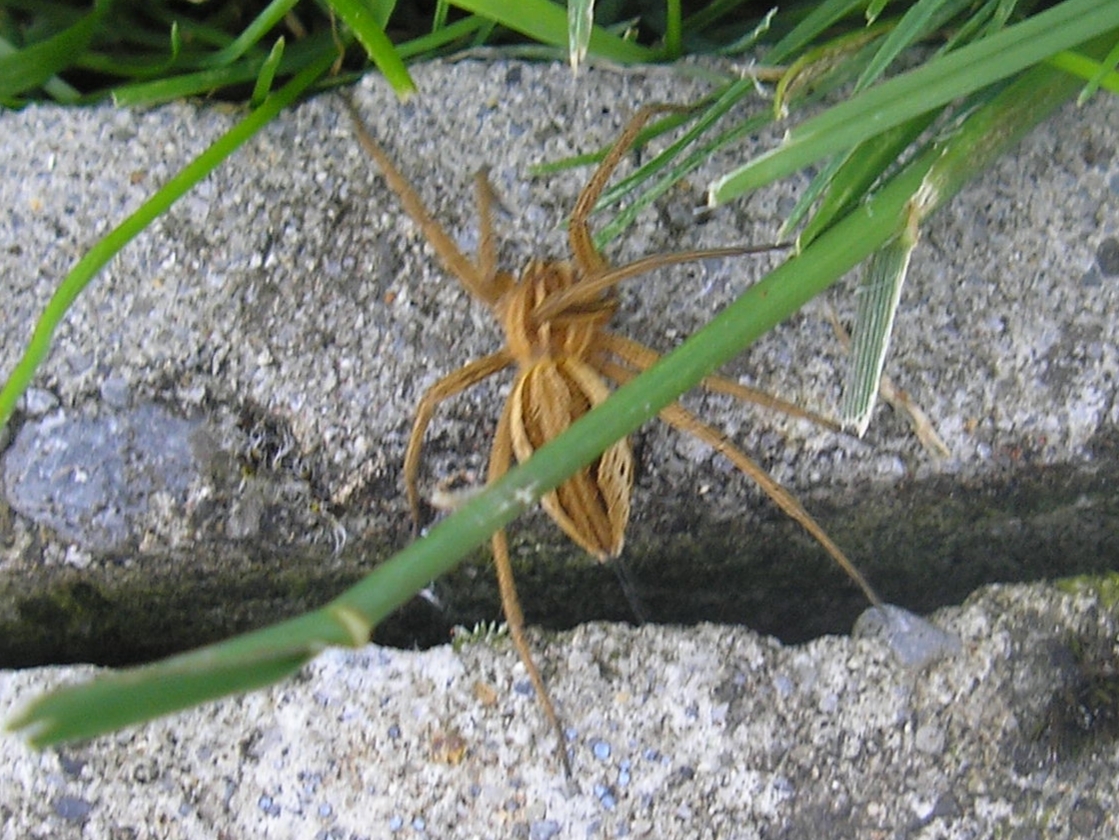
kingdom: Animalia
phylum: Arthropoda
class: Arachnida
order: Araneae
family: Pisauridae
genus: Pisaura
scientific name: Pisaura mirabilis
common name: Tent spider
